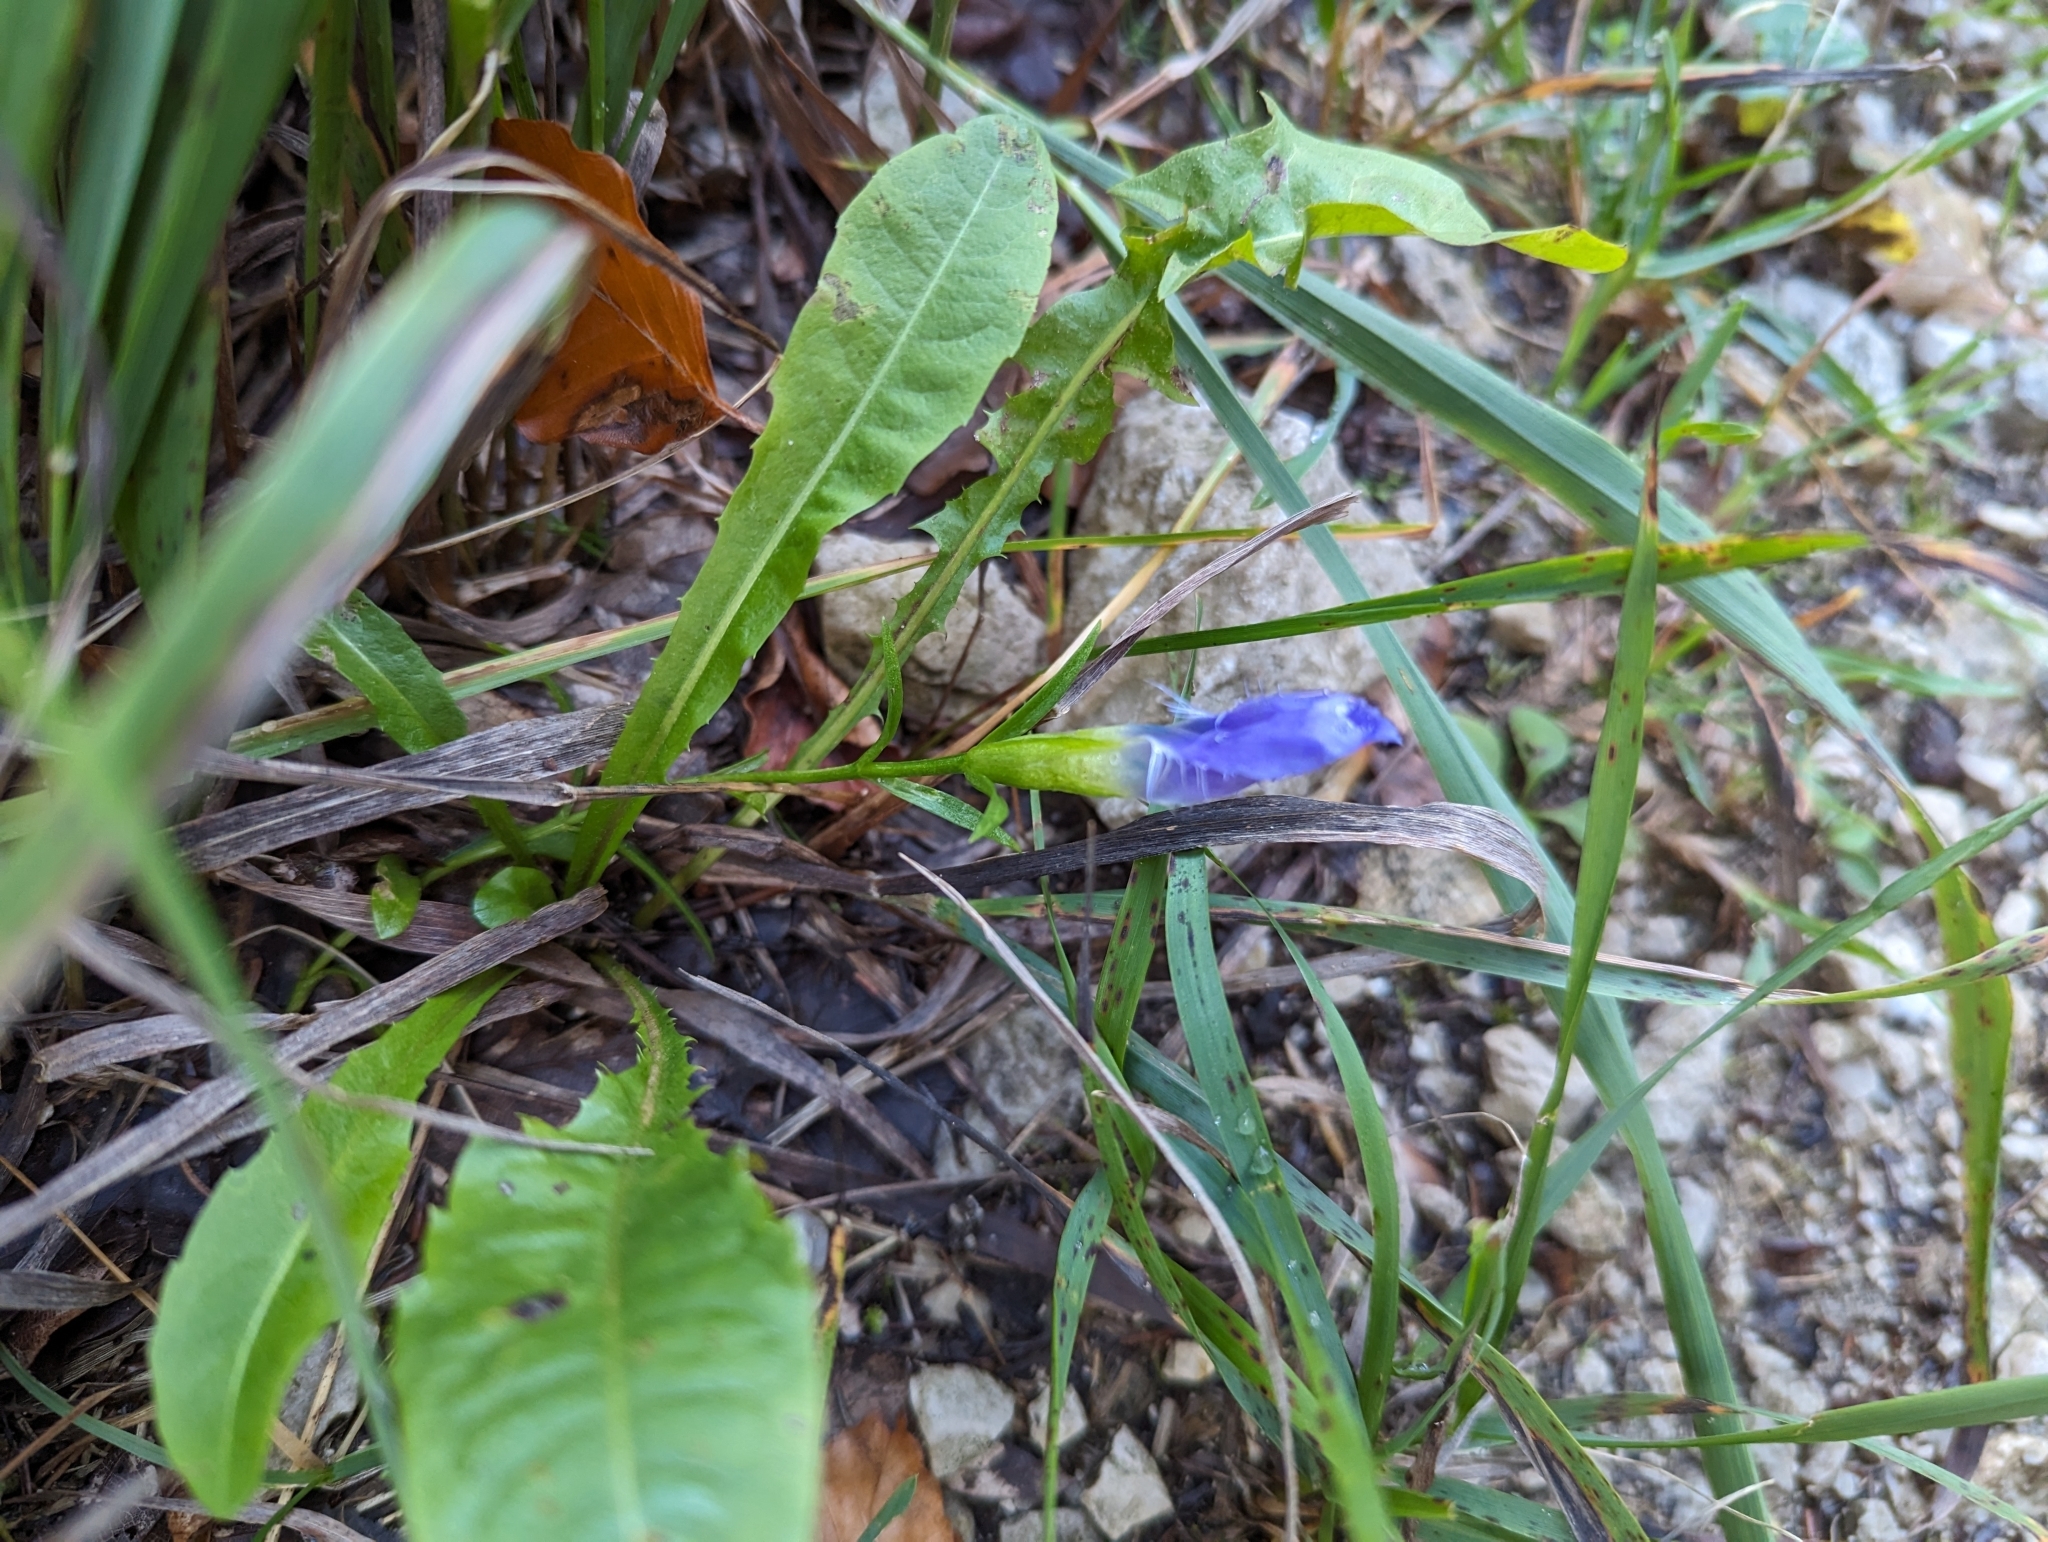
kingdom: Plantae
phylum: Tracheophyta
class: Magnoliopsida
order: Gentianales
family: Gentianaceae
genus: Gentianopsis
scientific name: Gentianopsis ciliata
